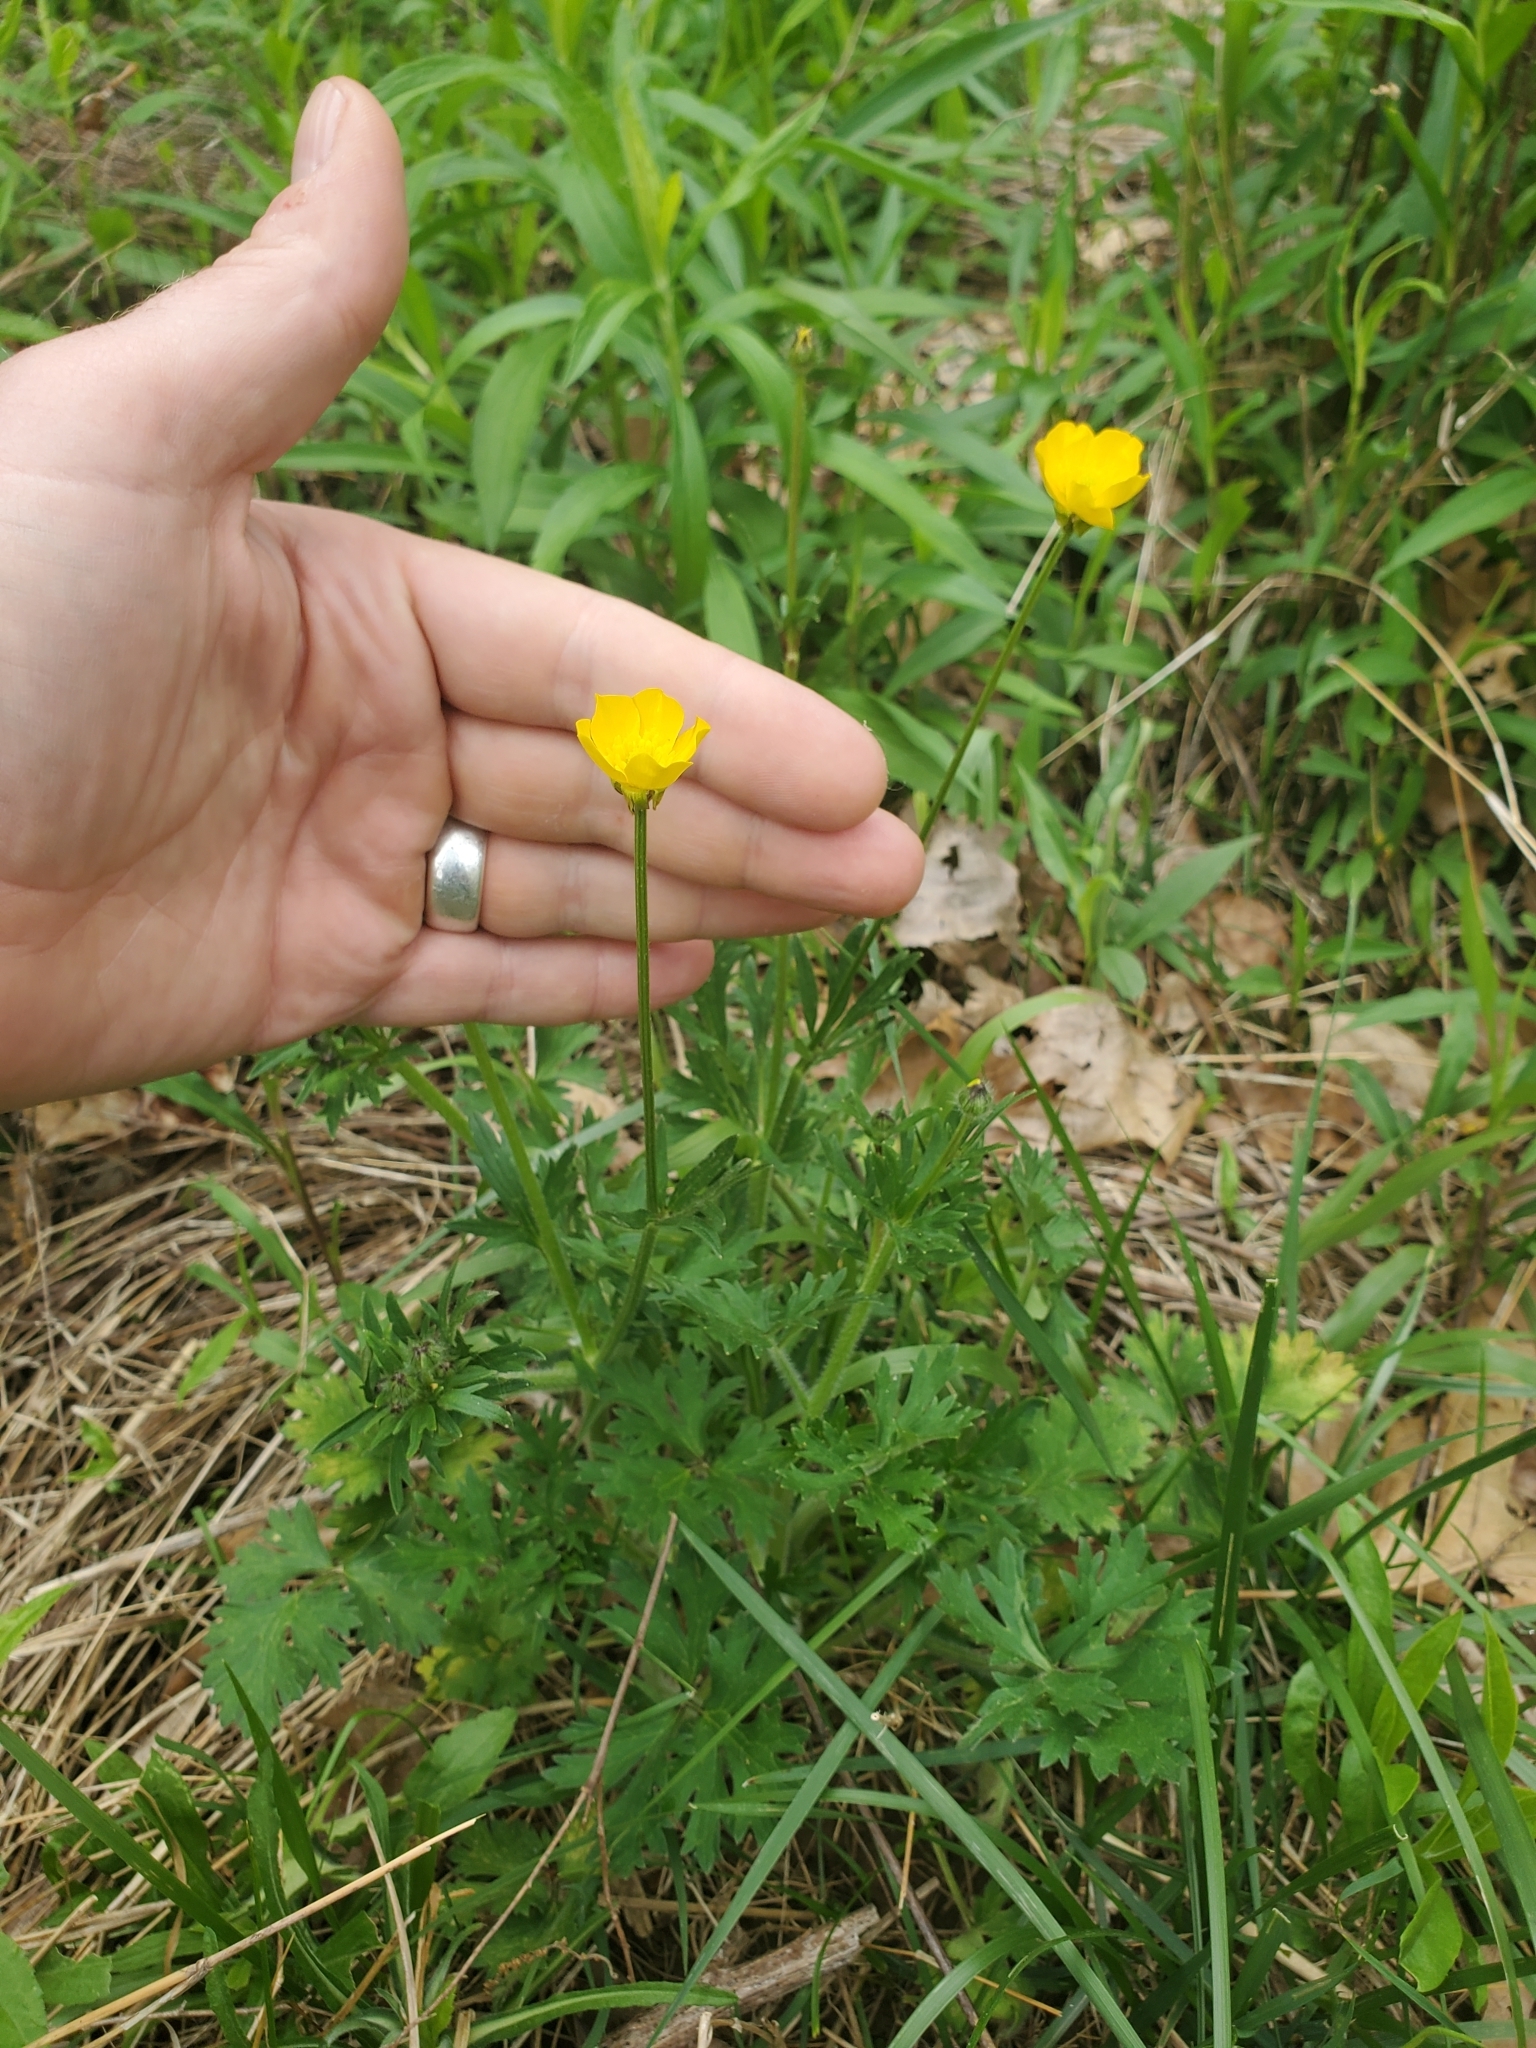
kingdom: Plantae
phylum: Tracheophyta
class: Magnoliopsida
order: Ranunculales
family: Ranunculaceae
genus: Ranunculus
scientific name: Ranunculus bulbosus
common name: Bulbous buttercup
